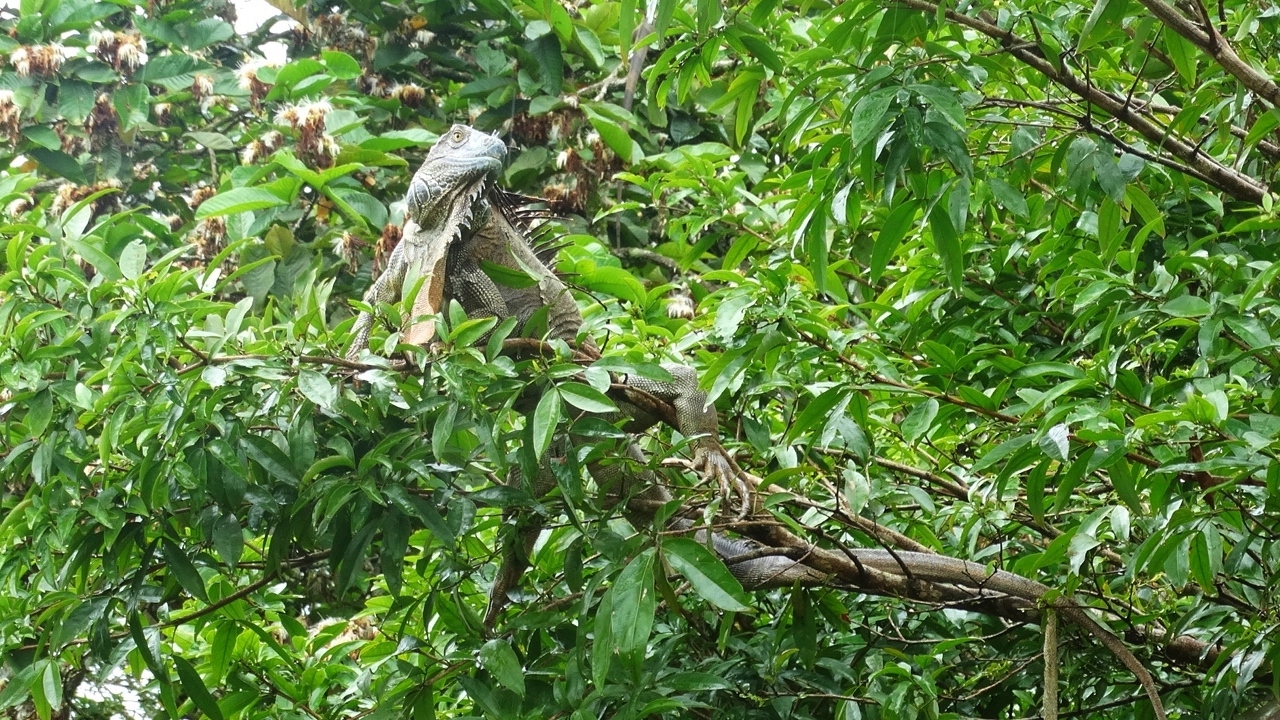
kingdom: Animalia
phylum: Chordata
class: Squamata
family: Iguanidae
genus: Iguana
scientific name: Iguana iguana
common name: Green iguana
